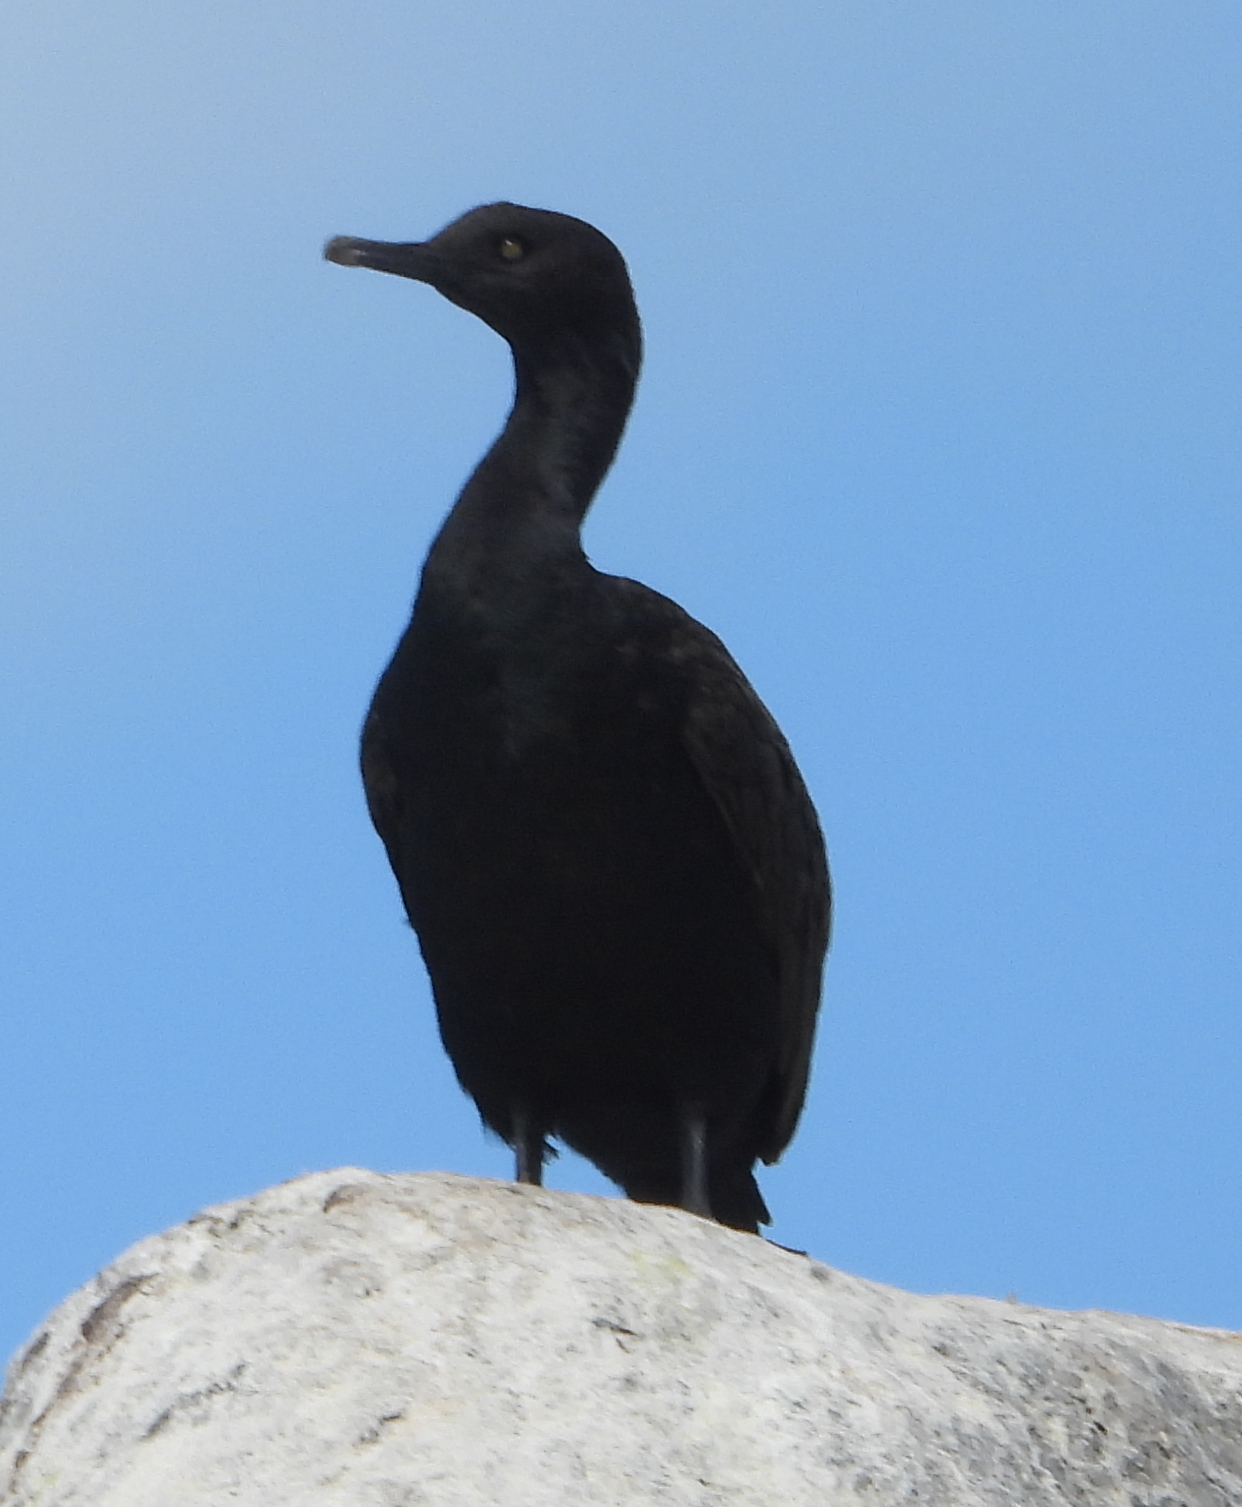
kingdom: Animalia
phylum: Chordata
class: Aves
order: Suliformes
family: Phalacrocoracidae
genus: Phalacrocorax
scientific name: Phalacrocorax neglectus
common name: Bank cormorant
